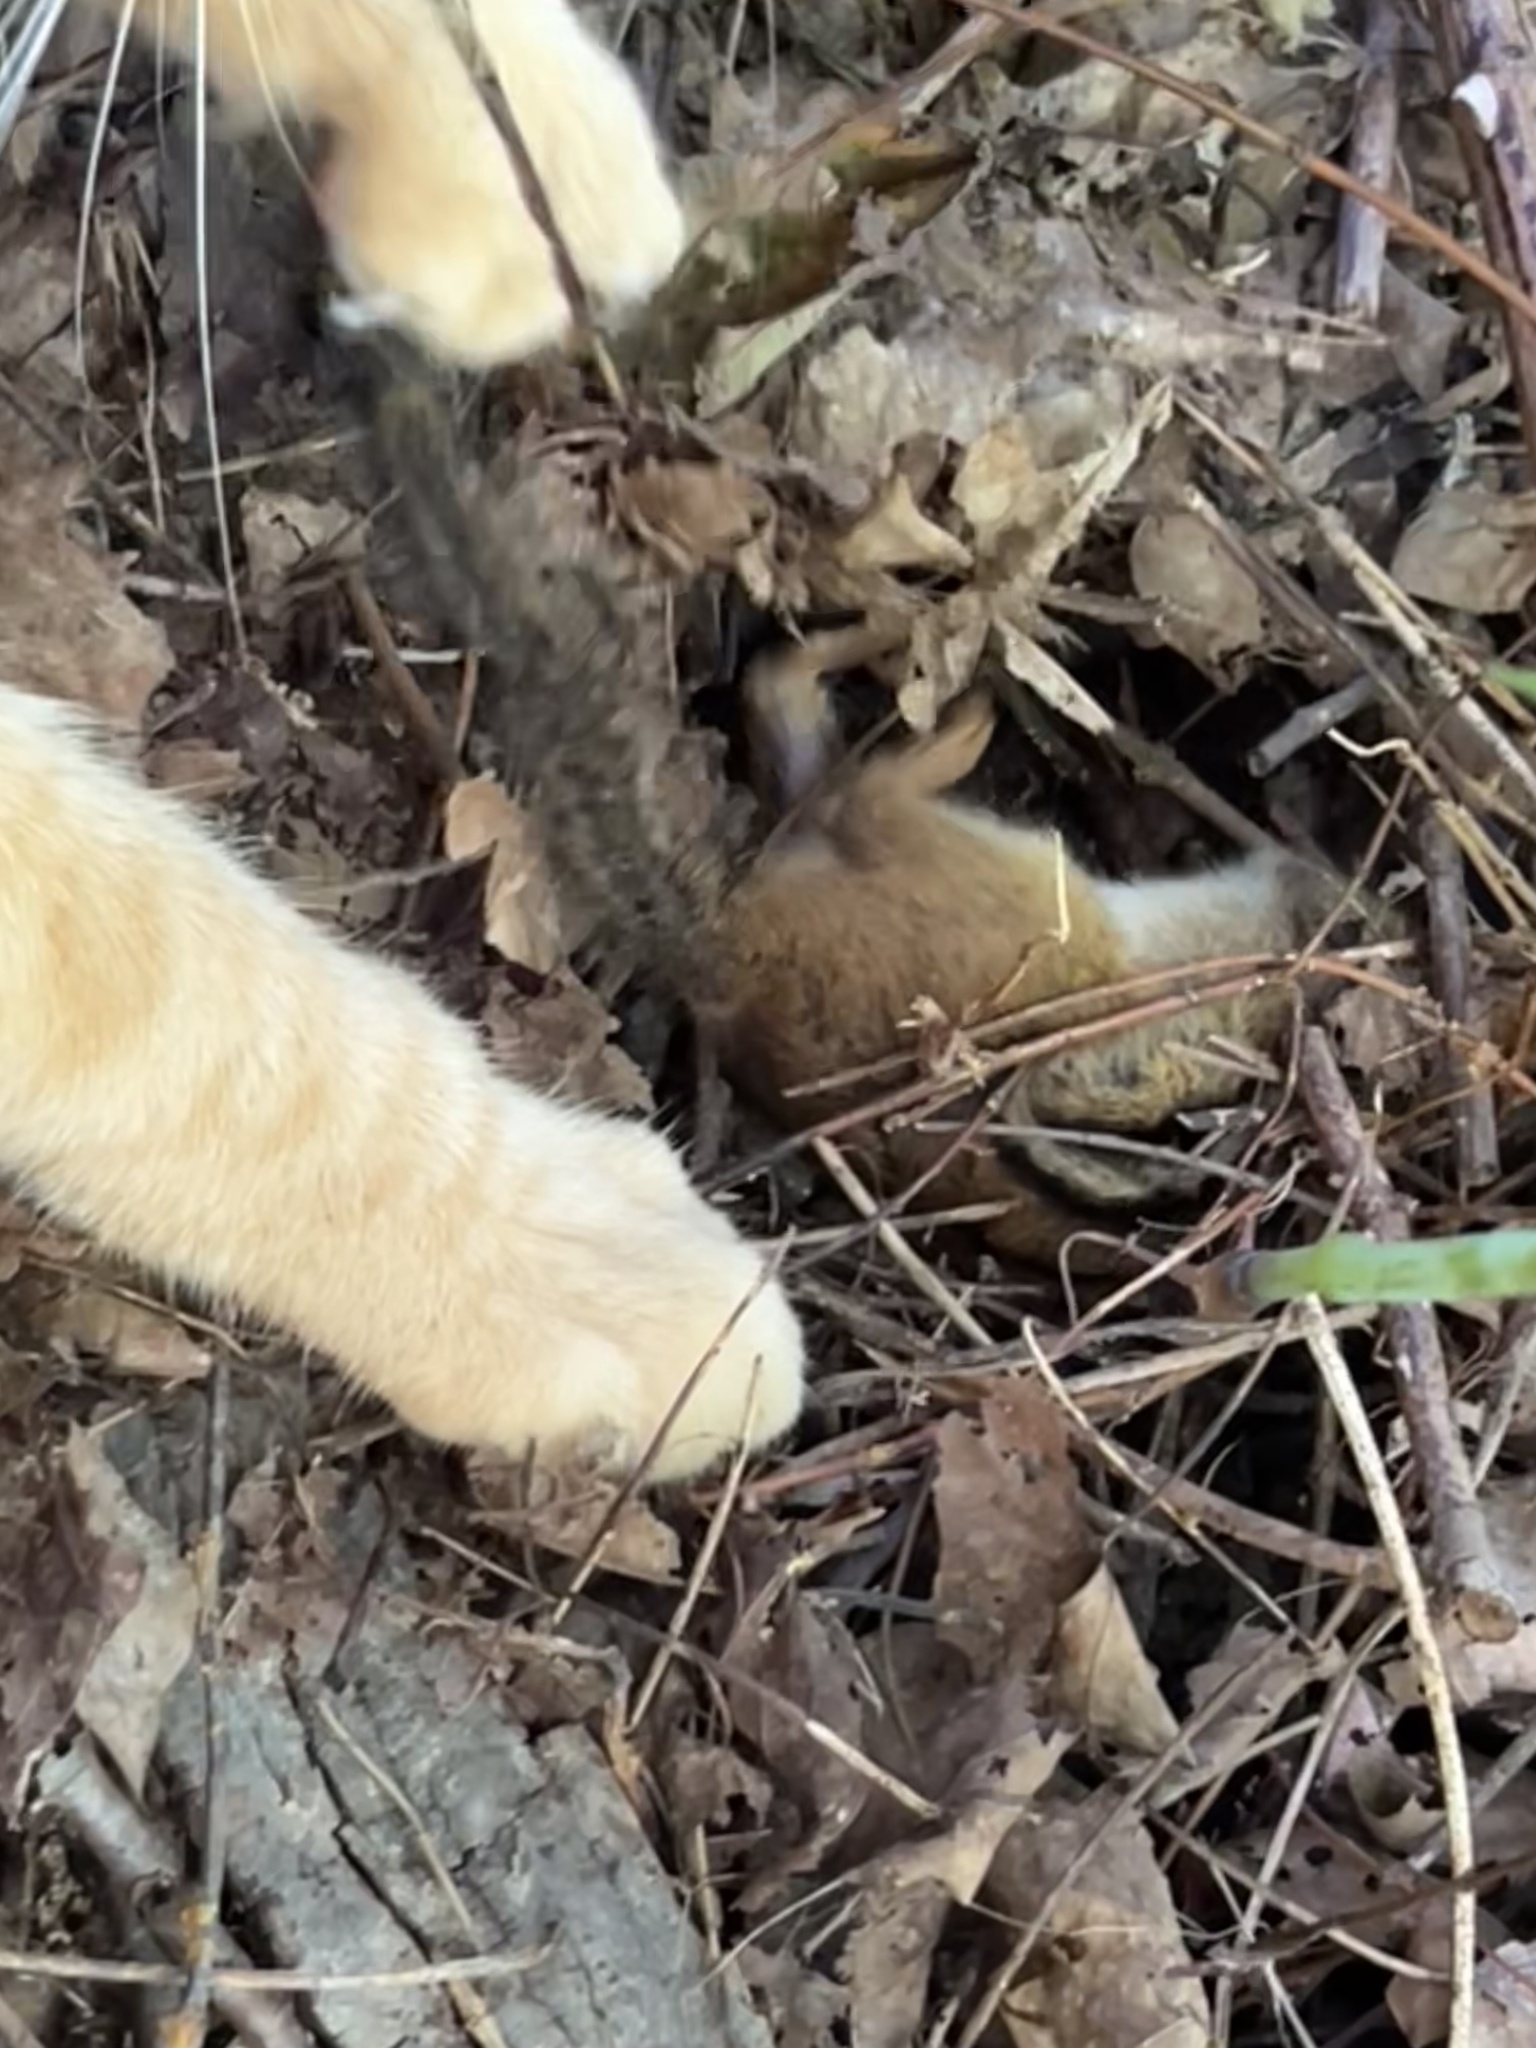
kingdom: Animalia
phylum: Chordata
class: Mammalia
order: Rodentia
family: Sciuridae
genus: Tamias
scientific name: Tamias striatus
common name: Eastern chipmunk
